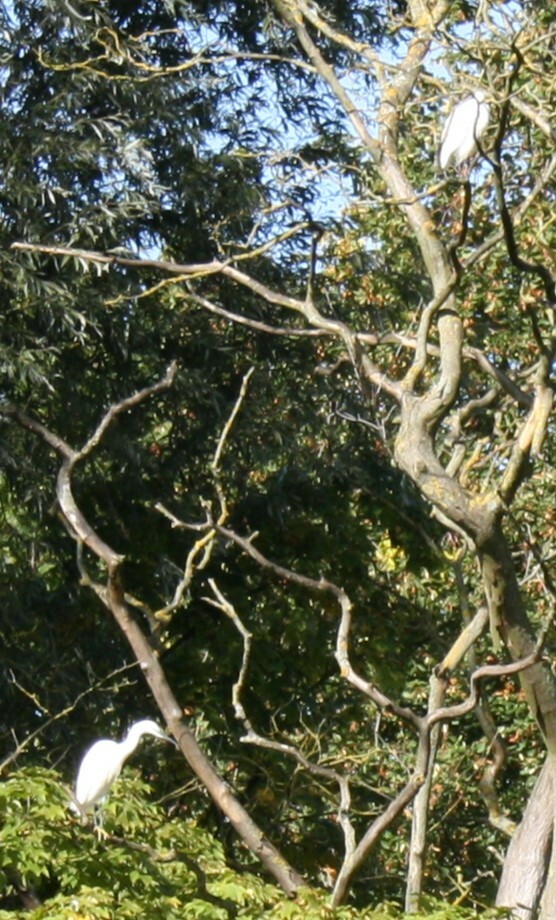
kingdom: Animalia
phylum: Chordata
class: Aves
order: Pelecaniformes
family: Ardeidae
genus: Egretta
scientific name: Egretta garzetta
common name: Little egret
